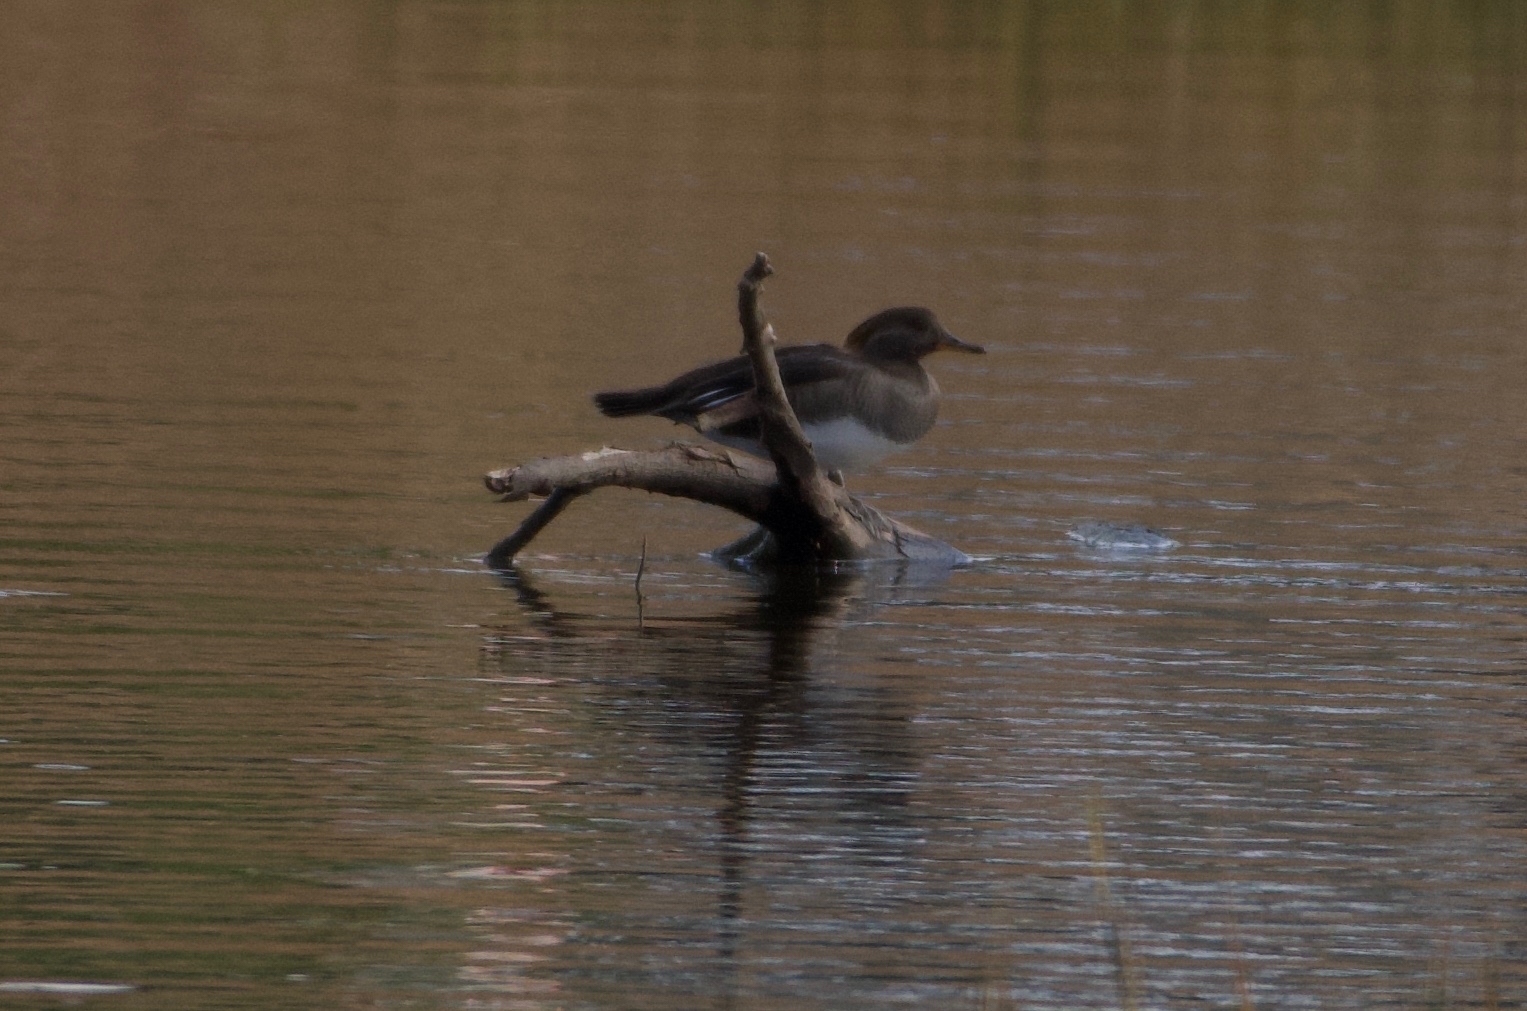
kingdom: Animalia
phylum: Chordata
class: Aves
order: Anseriformes
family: Anatidae
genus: Lophodytes
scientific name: Lophodytes cucullatus
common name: Hooded merganser
